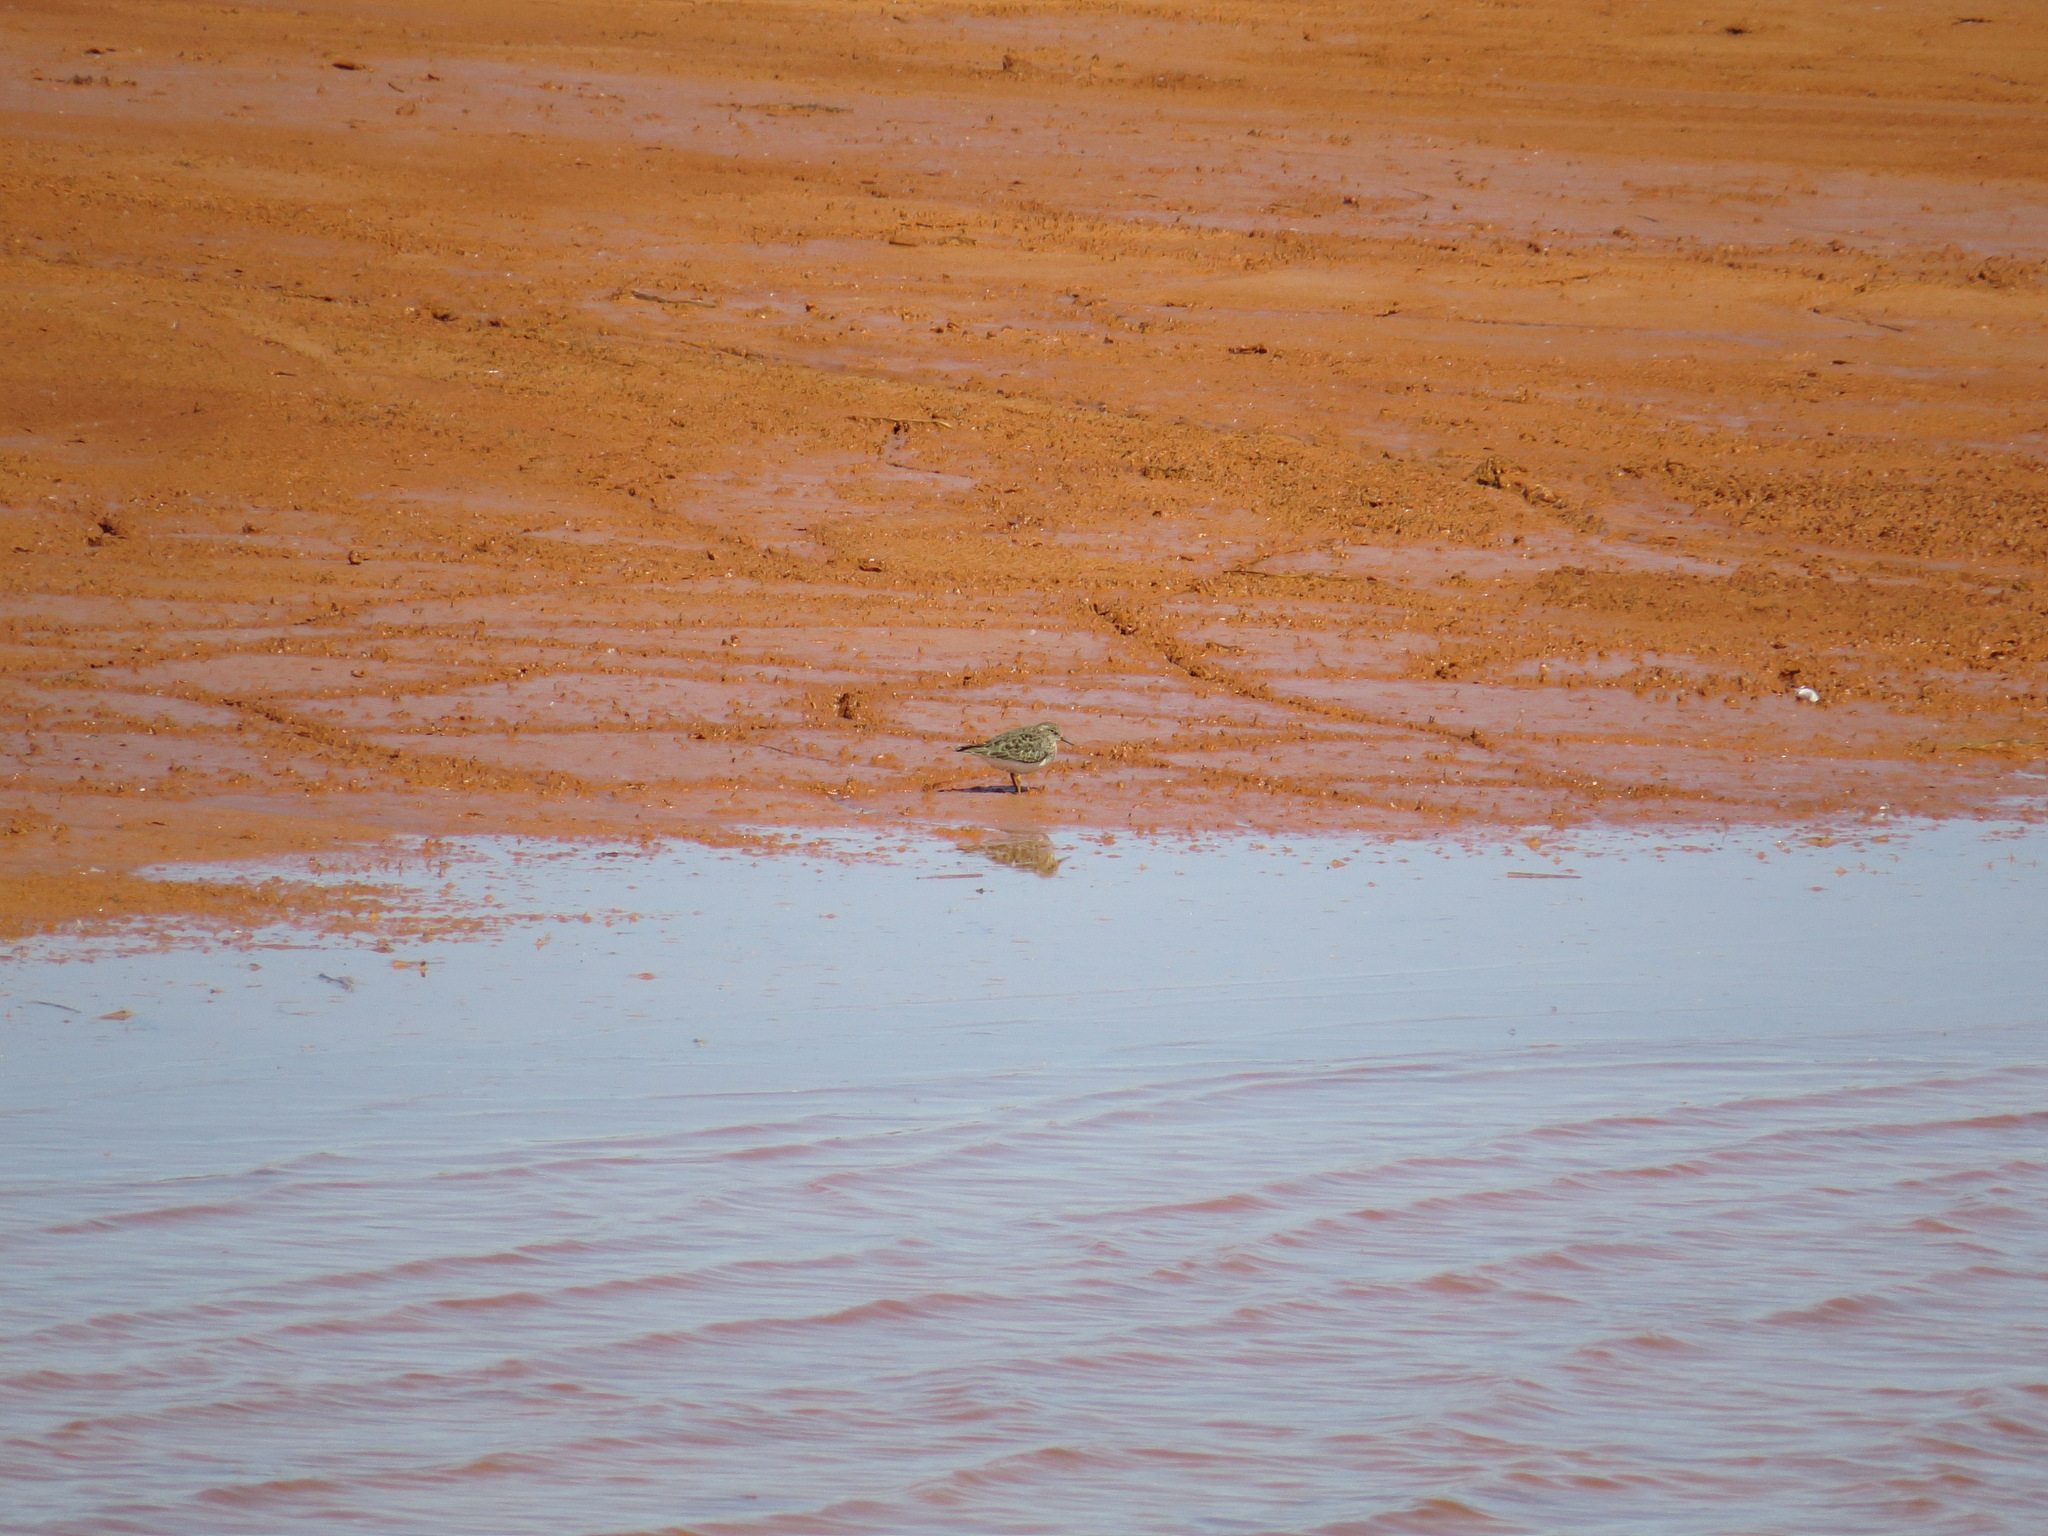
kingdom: Animalia
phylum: Chordata
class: Aves
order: Charadriiformes
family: Scolopacidae
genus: Calidris
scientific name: Calidris temminckii
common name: Temminck's stint
